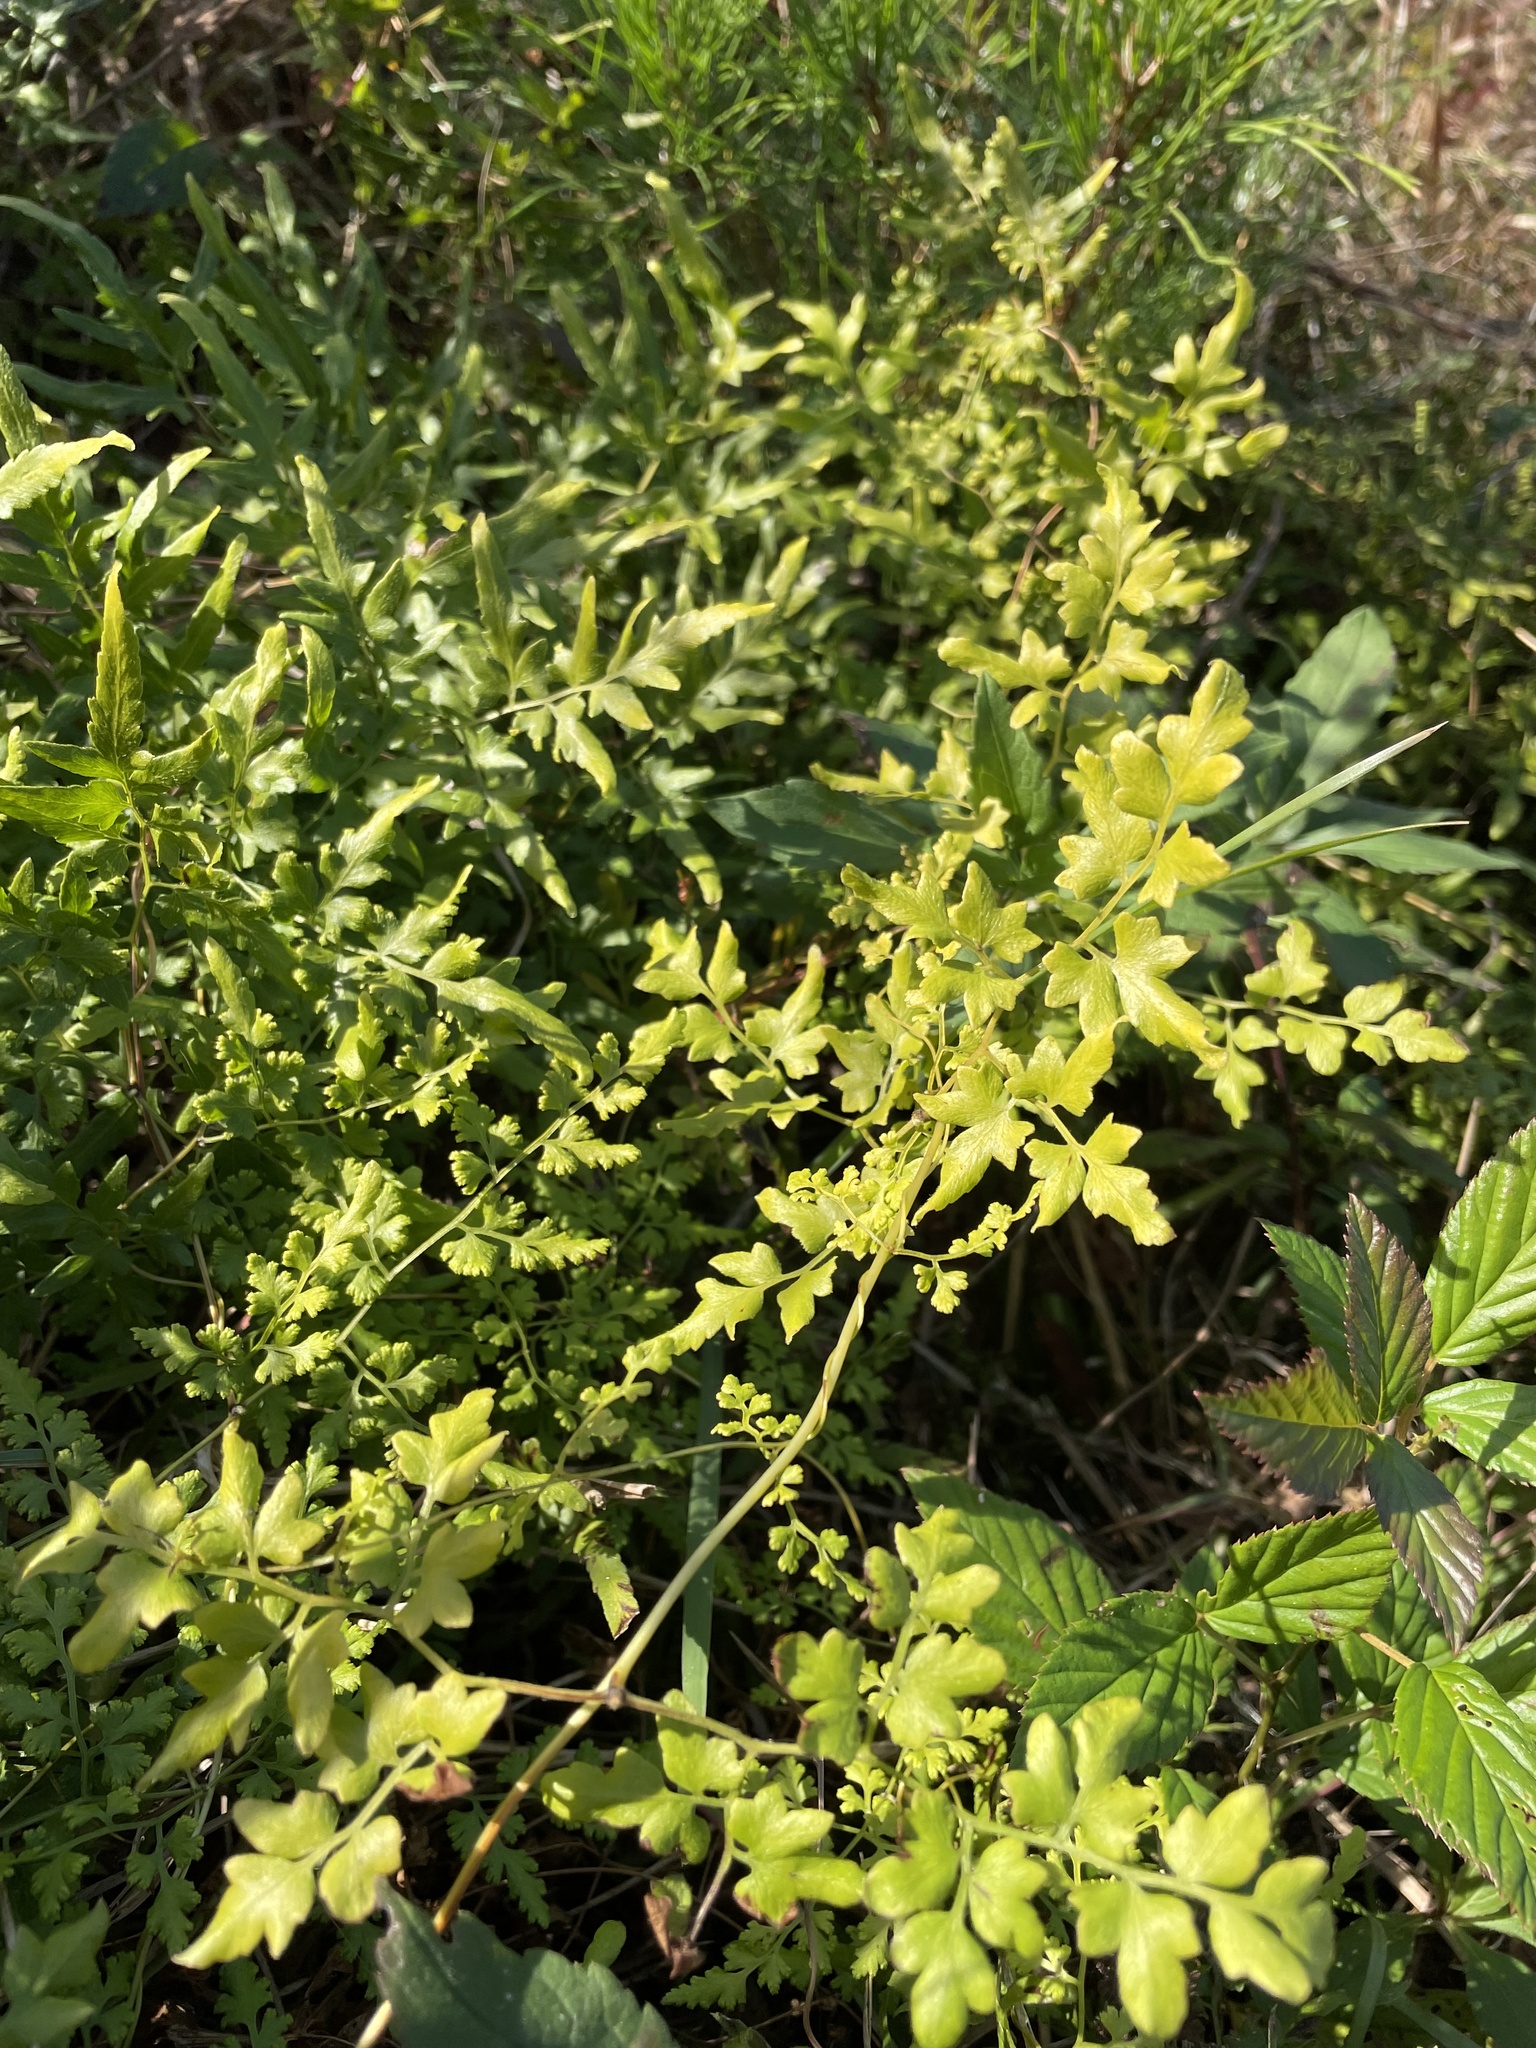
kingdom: Plantae
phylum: Tracheophyta
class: Polypodiopsida
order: Schizaeales
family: Lygodiaceae
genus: Lygodium
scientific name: Lygodium japonicum
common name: Japanese climbing fern
